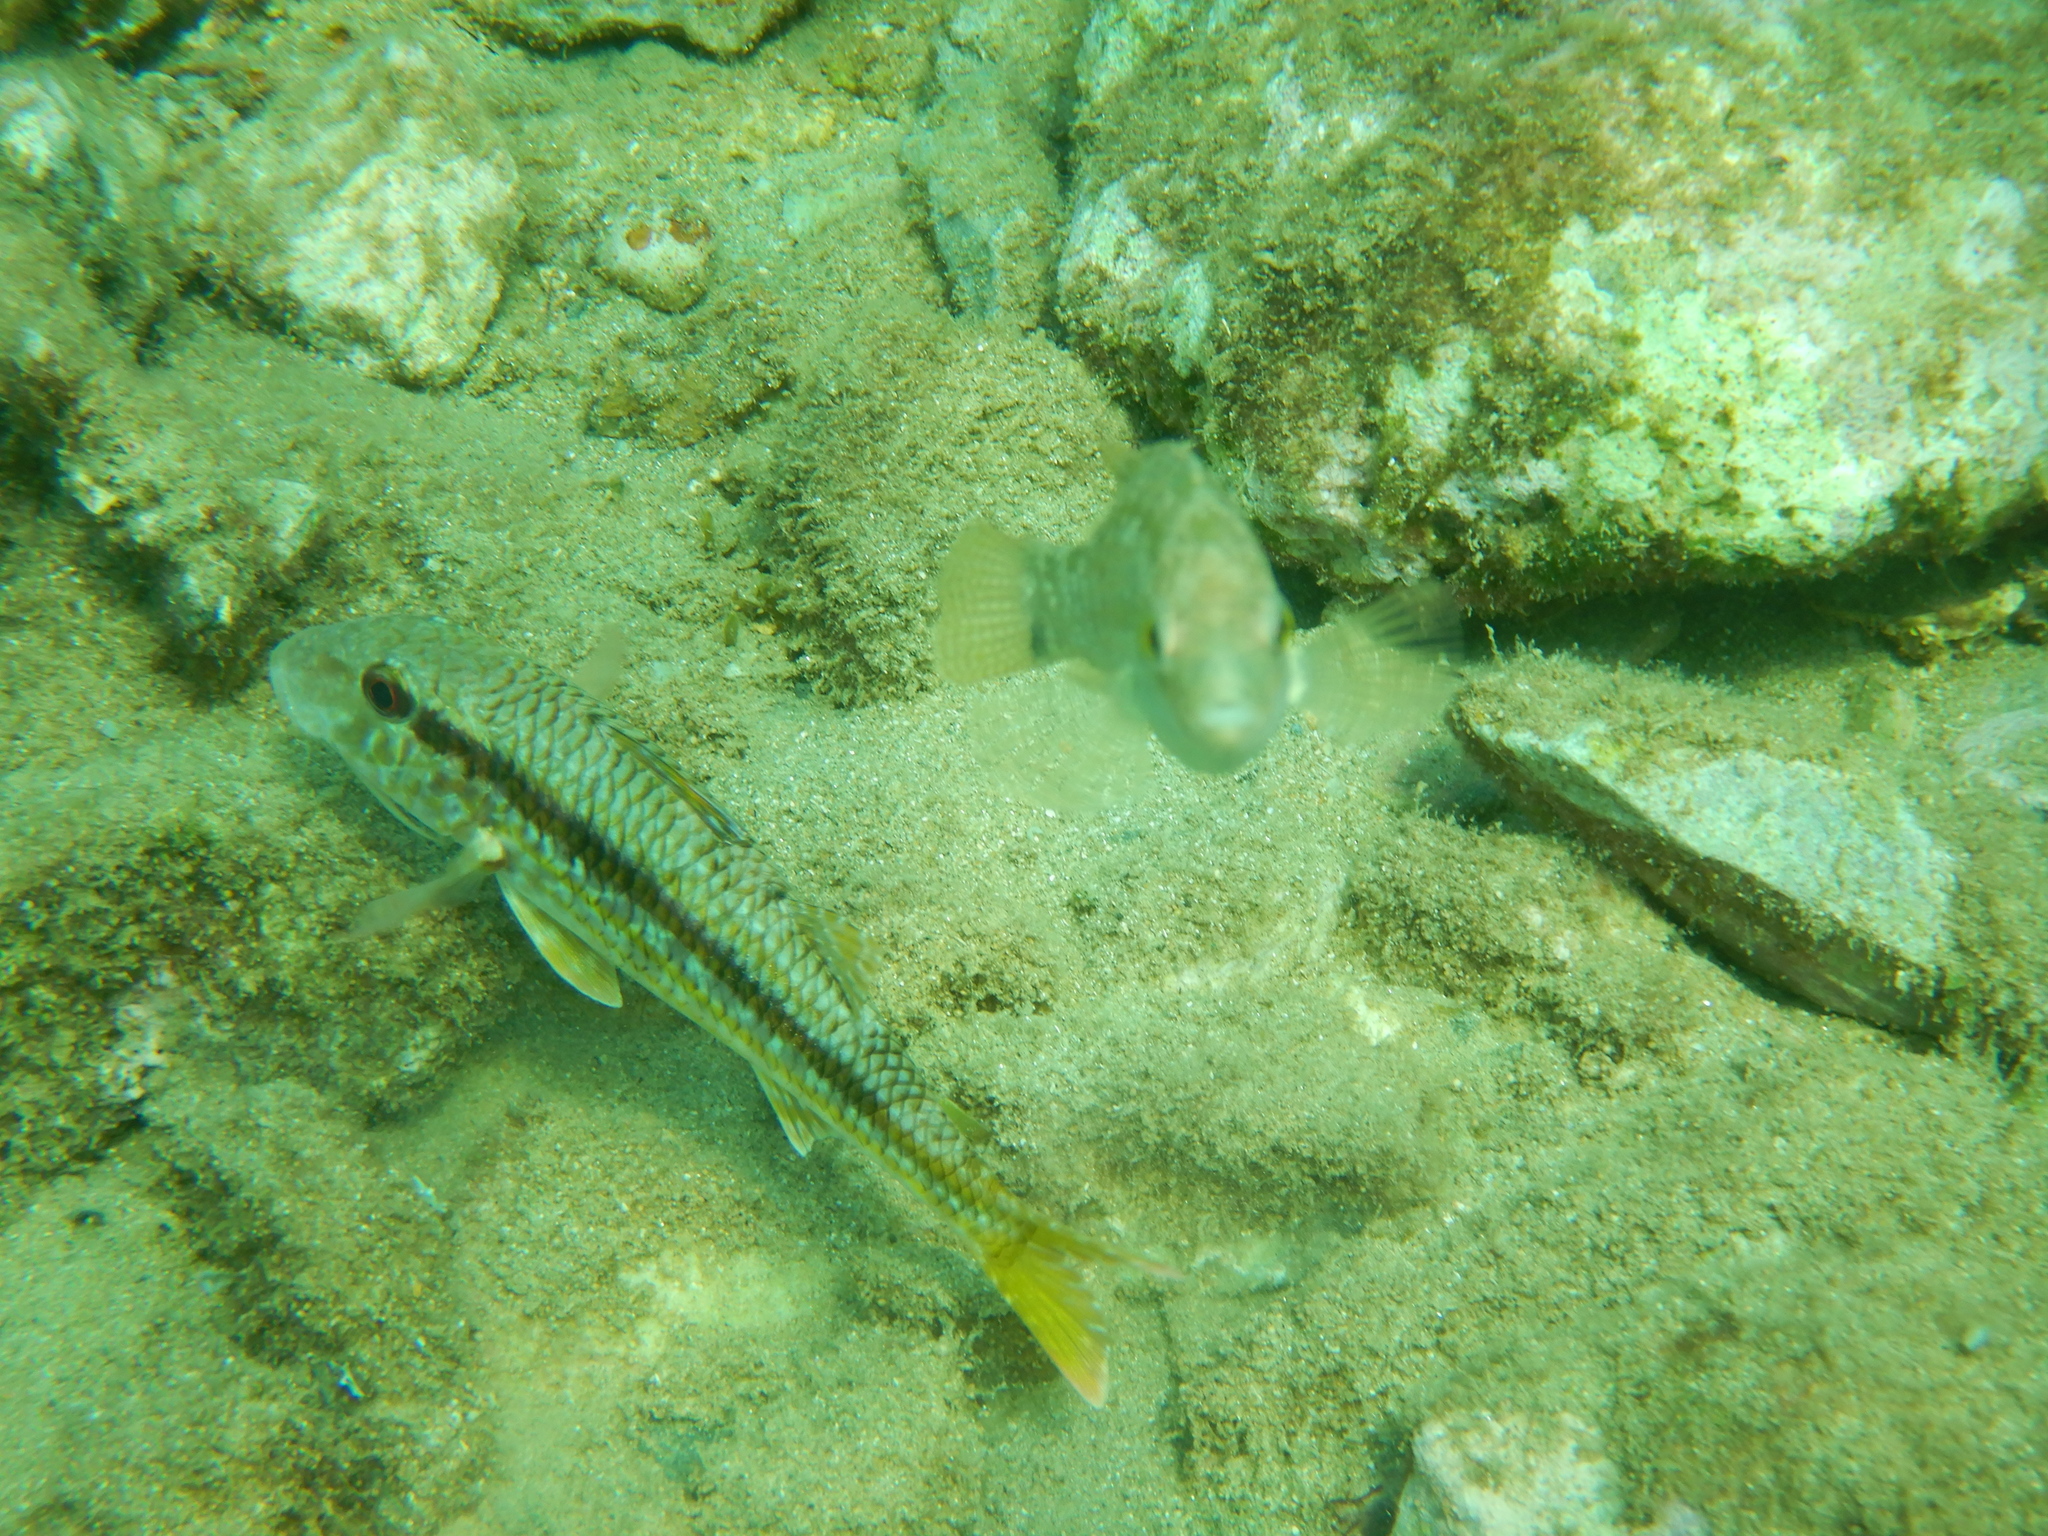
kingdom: Animalia
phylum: Chordata
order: Perciformes
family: Labridae
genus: Symphodus
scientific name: Symphodus cinereus
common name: Grey wrasse
